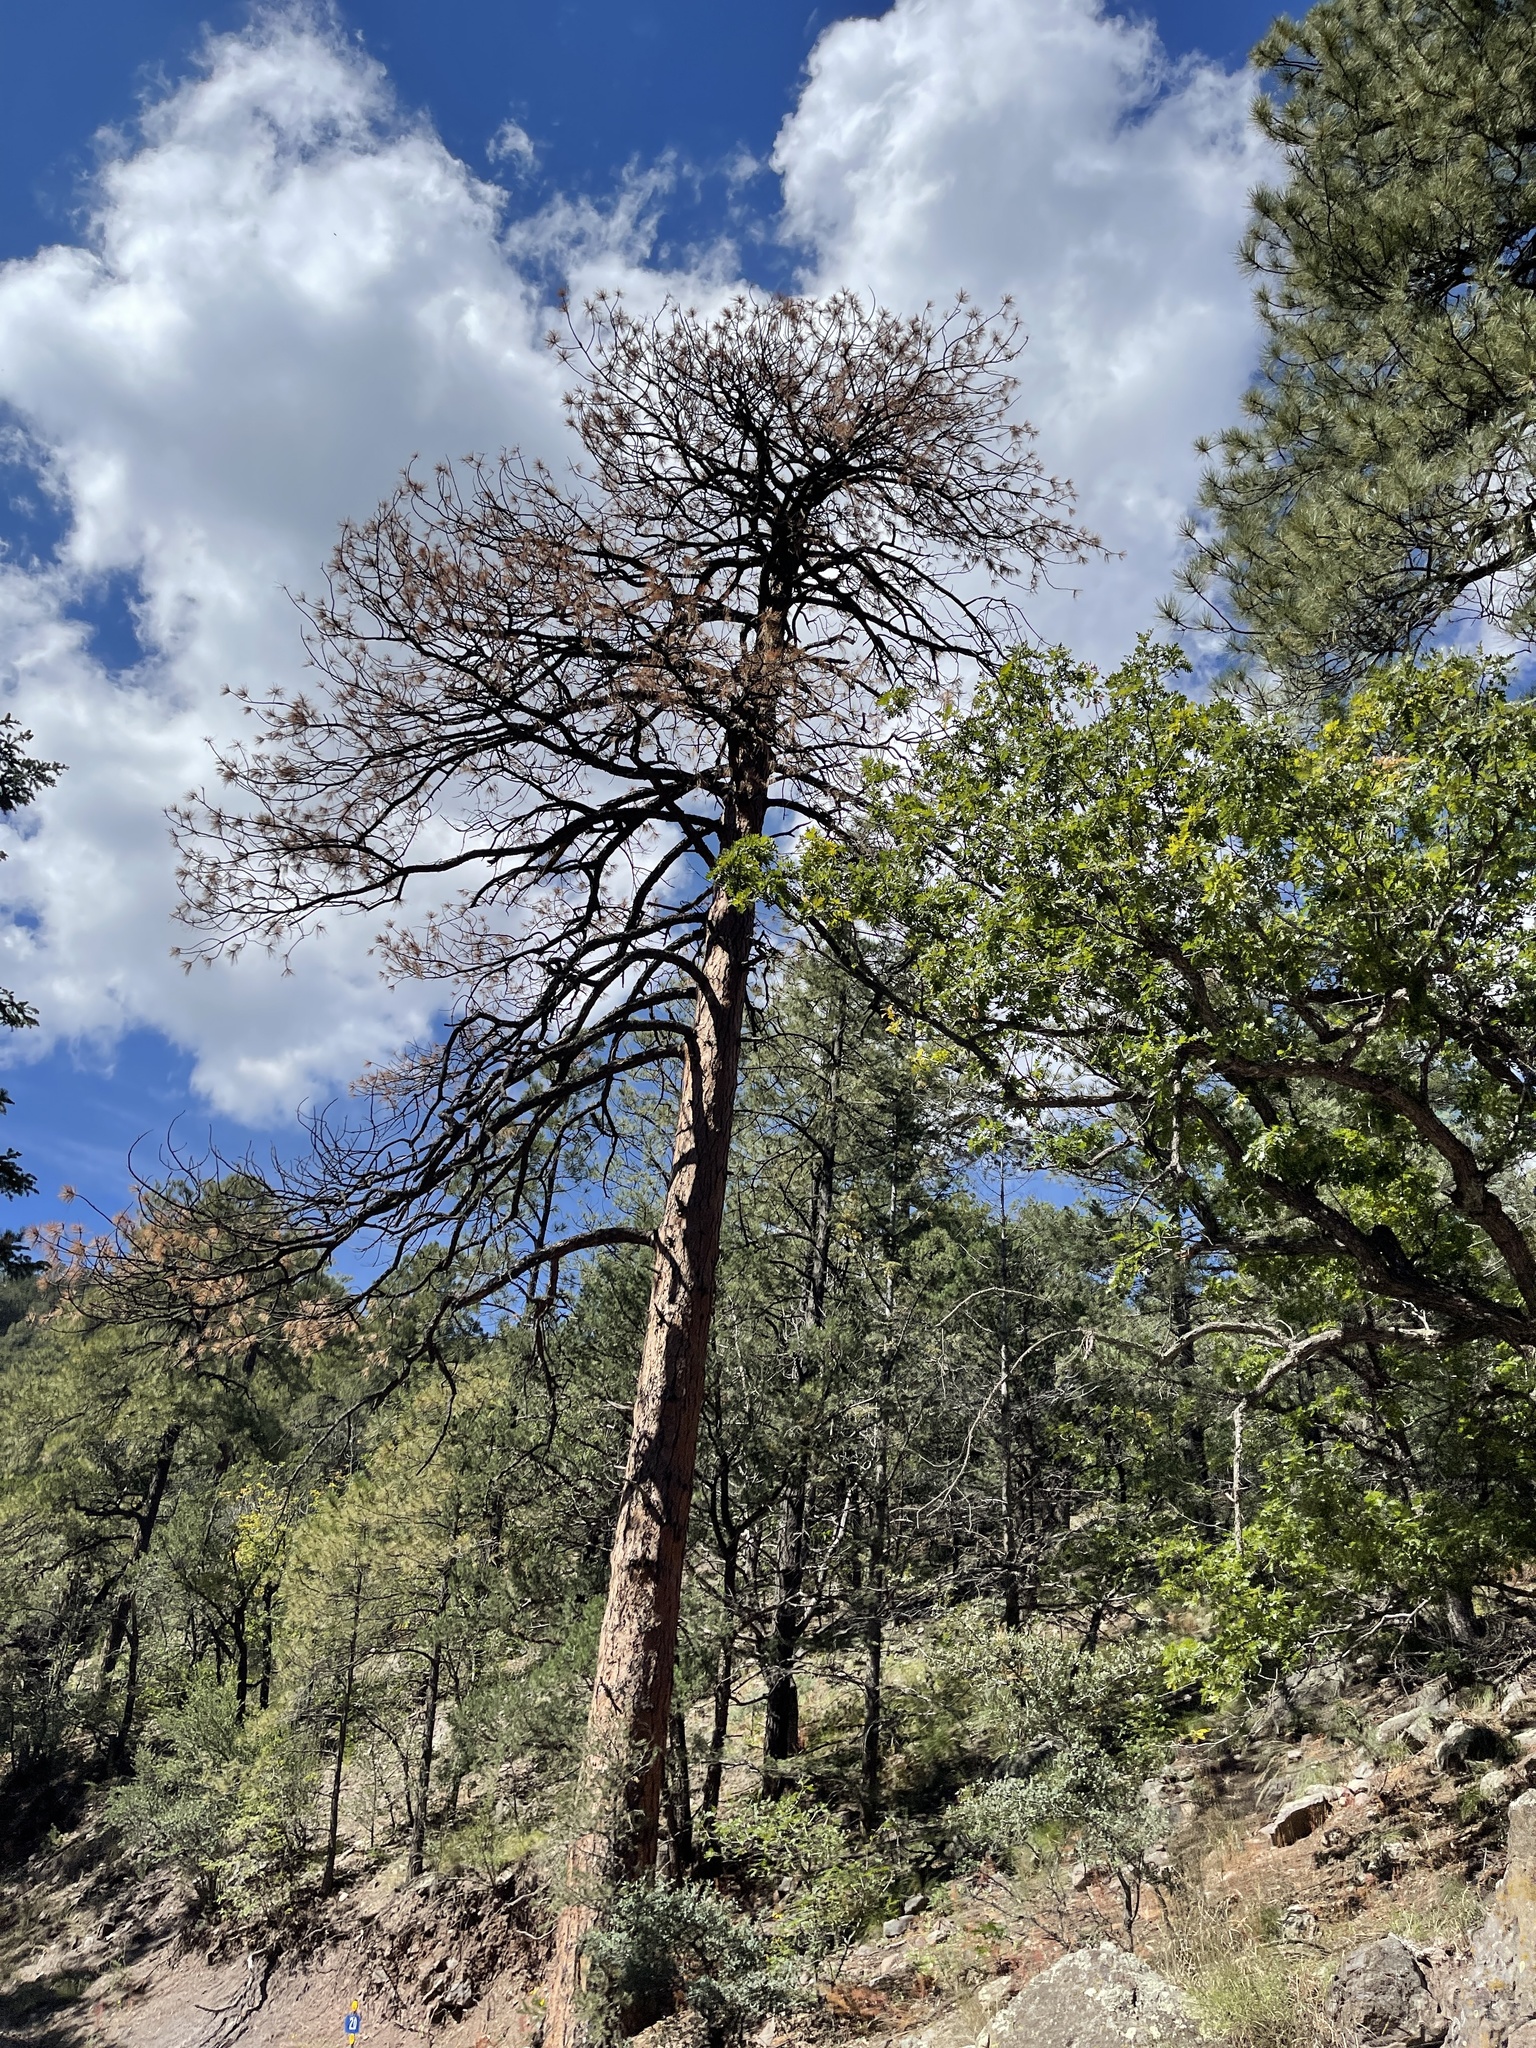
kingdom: Plantae
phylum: Tracheophyta
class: Pinopsida
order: Pinales
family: Pinaceae
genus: Pinus
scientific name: Pinus ponderosa
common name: Western yellow-pine
